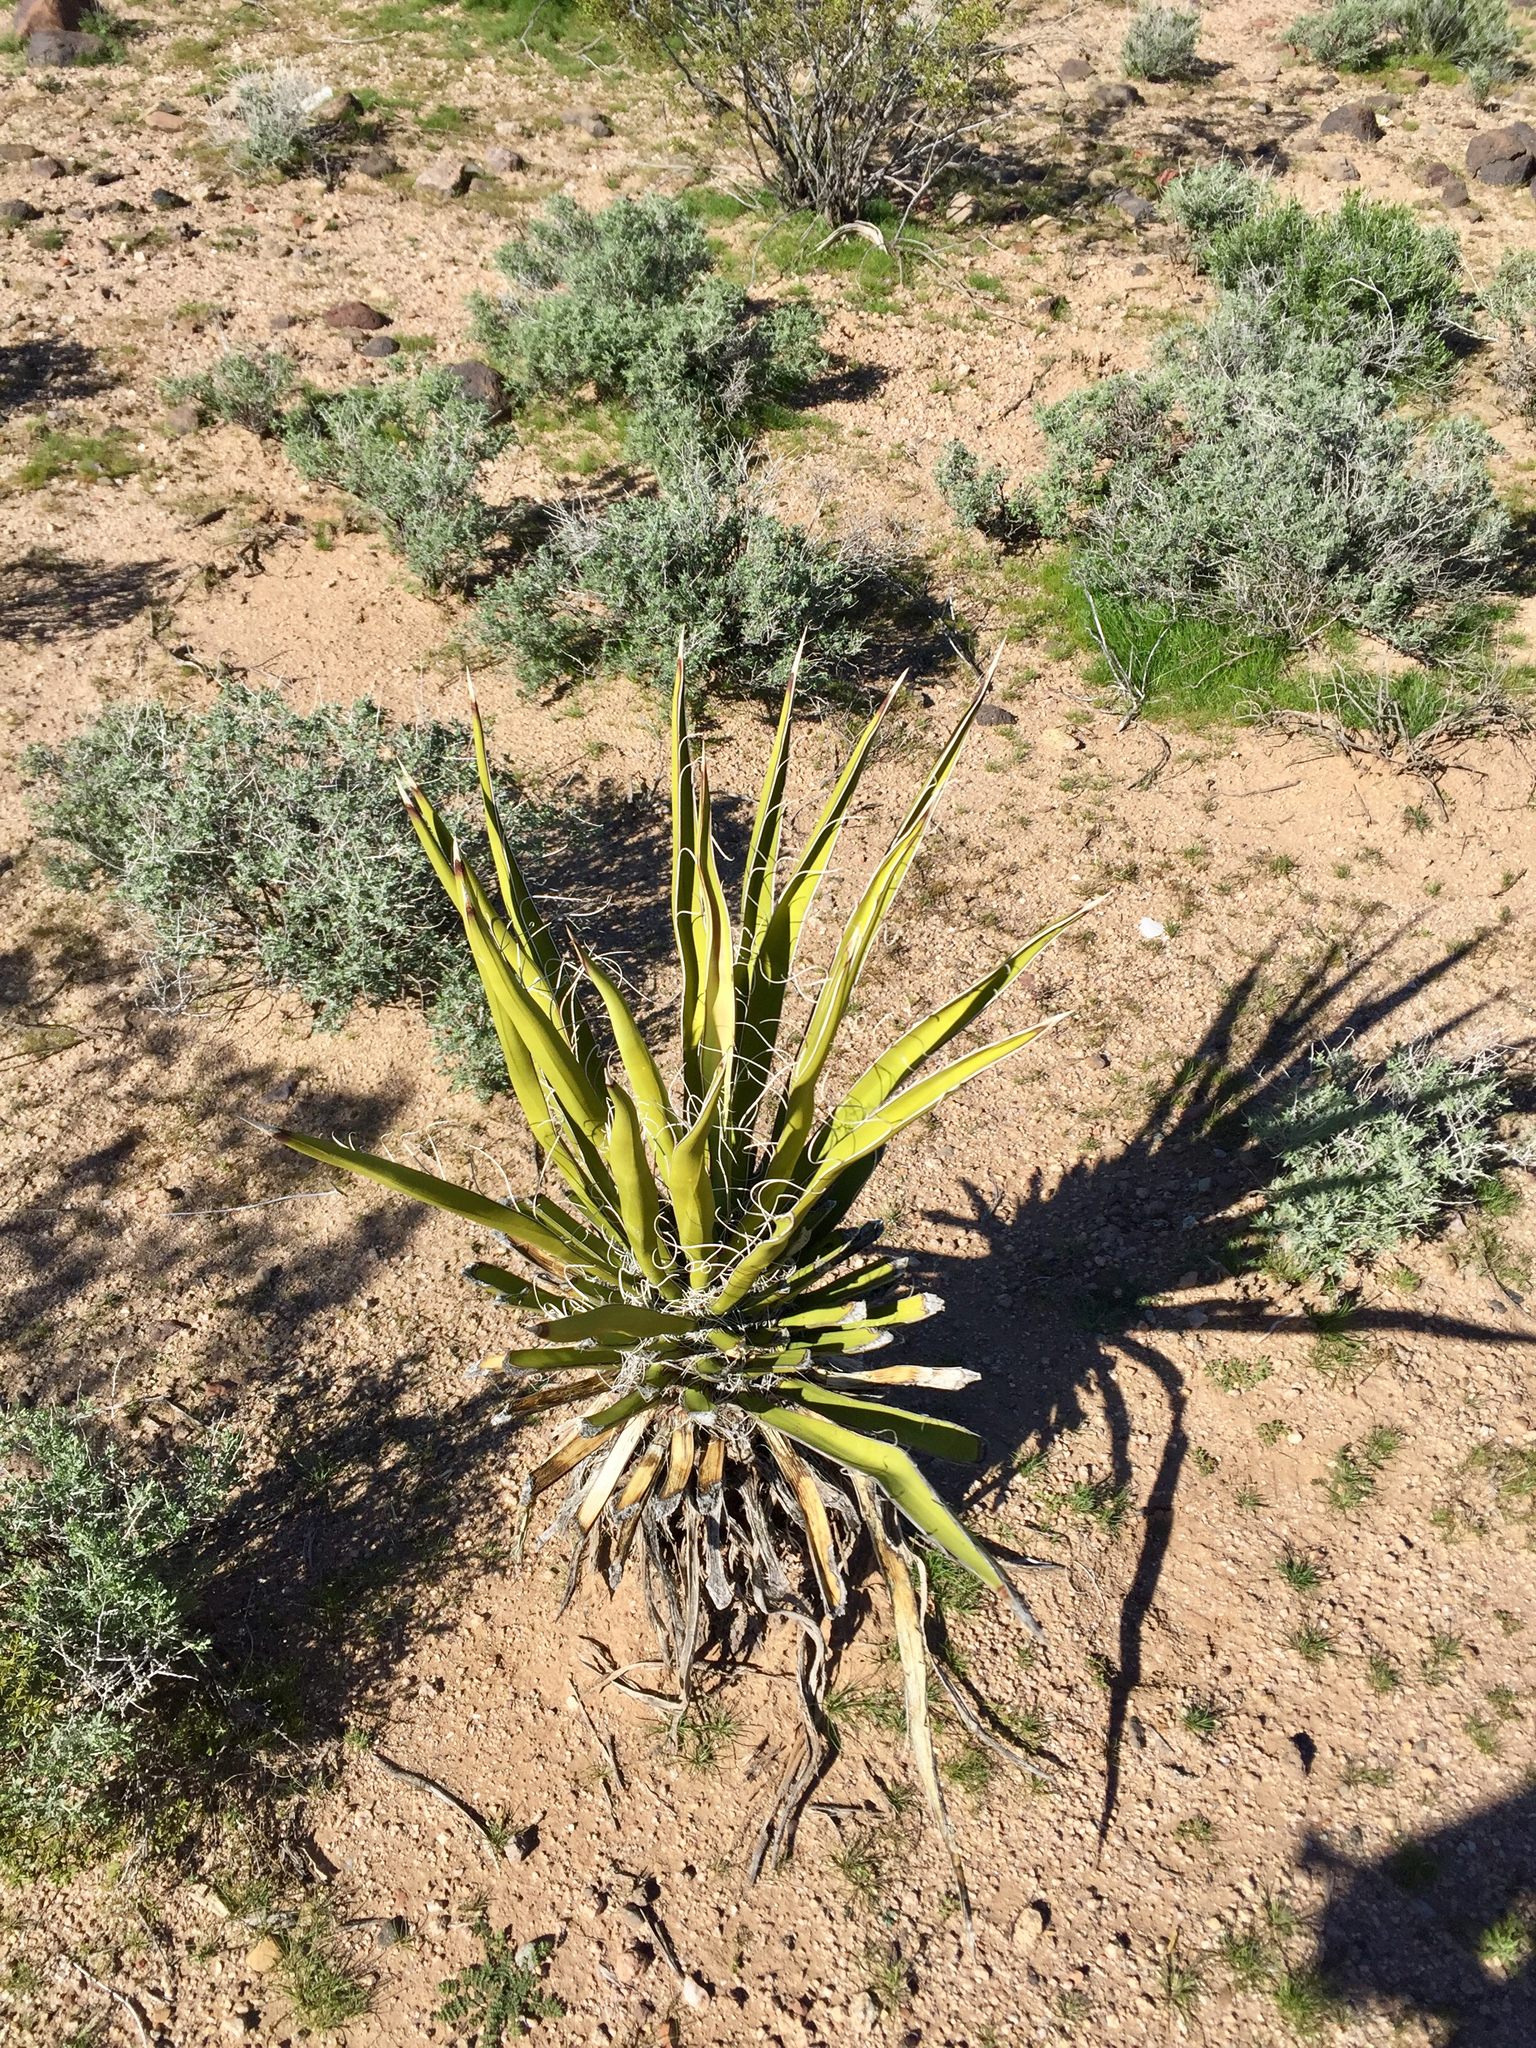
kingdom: Plantae
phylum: Tracheophyta
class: Liliopsida
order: Asparagales
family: Asparagaceae
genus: Yucca
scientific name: Yucca schidigera
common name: Mojave yucca
